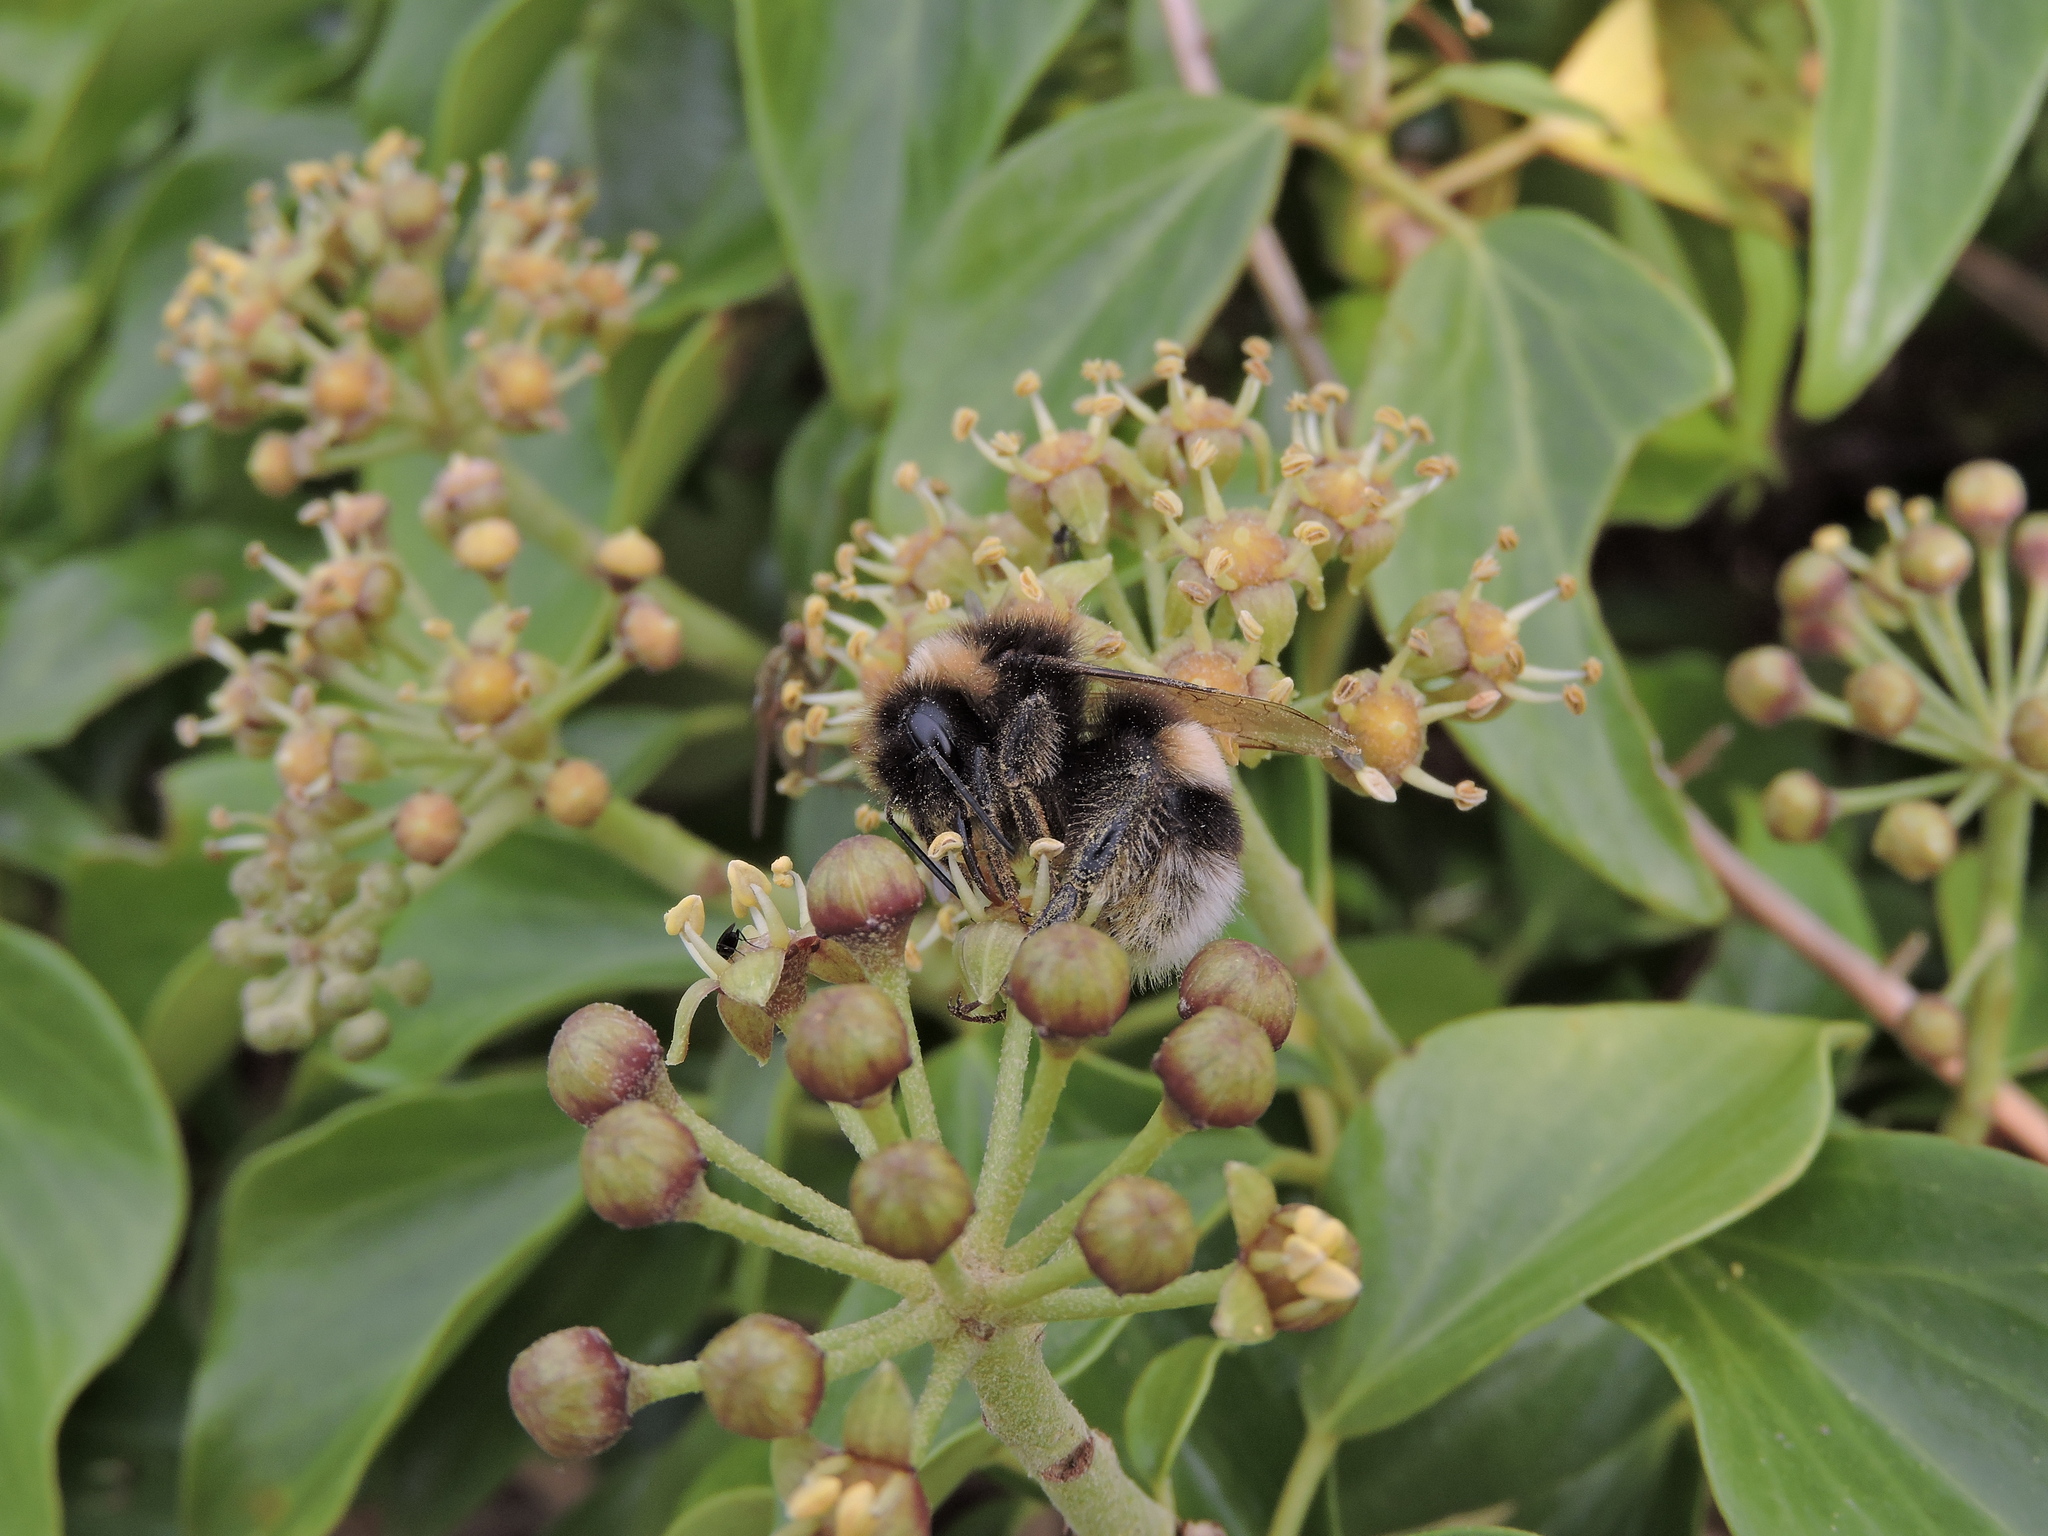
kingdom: Animalia
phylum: Arthropoda
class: Insecta
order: Hymenoptera
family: Apidae
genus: Bombus
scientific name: Bombus
